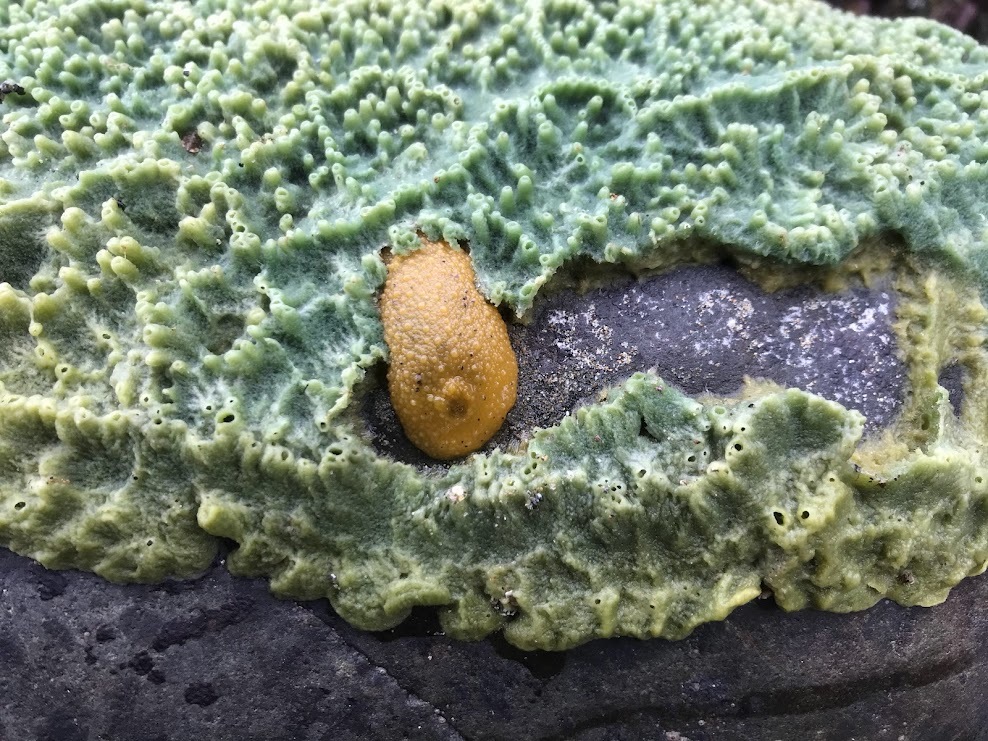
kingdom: Animalia
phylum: Mollusca
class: Gastropoda
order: Nudibranchia
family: Dorididae
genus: Doris
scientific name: Doris montereyensis
